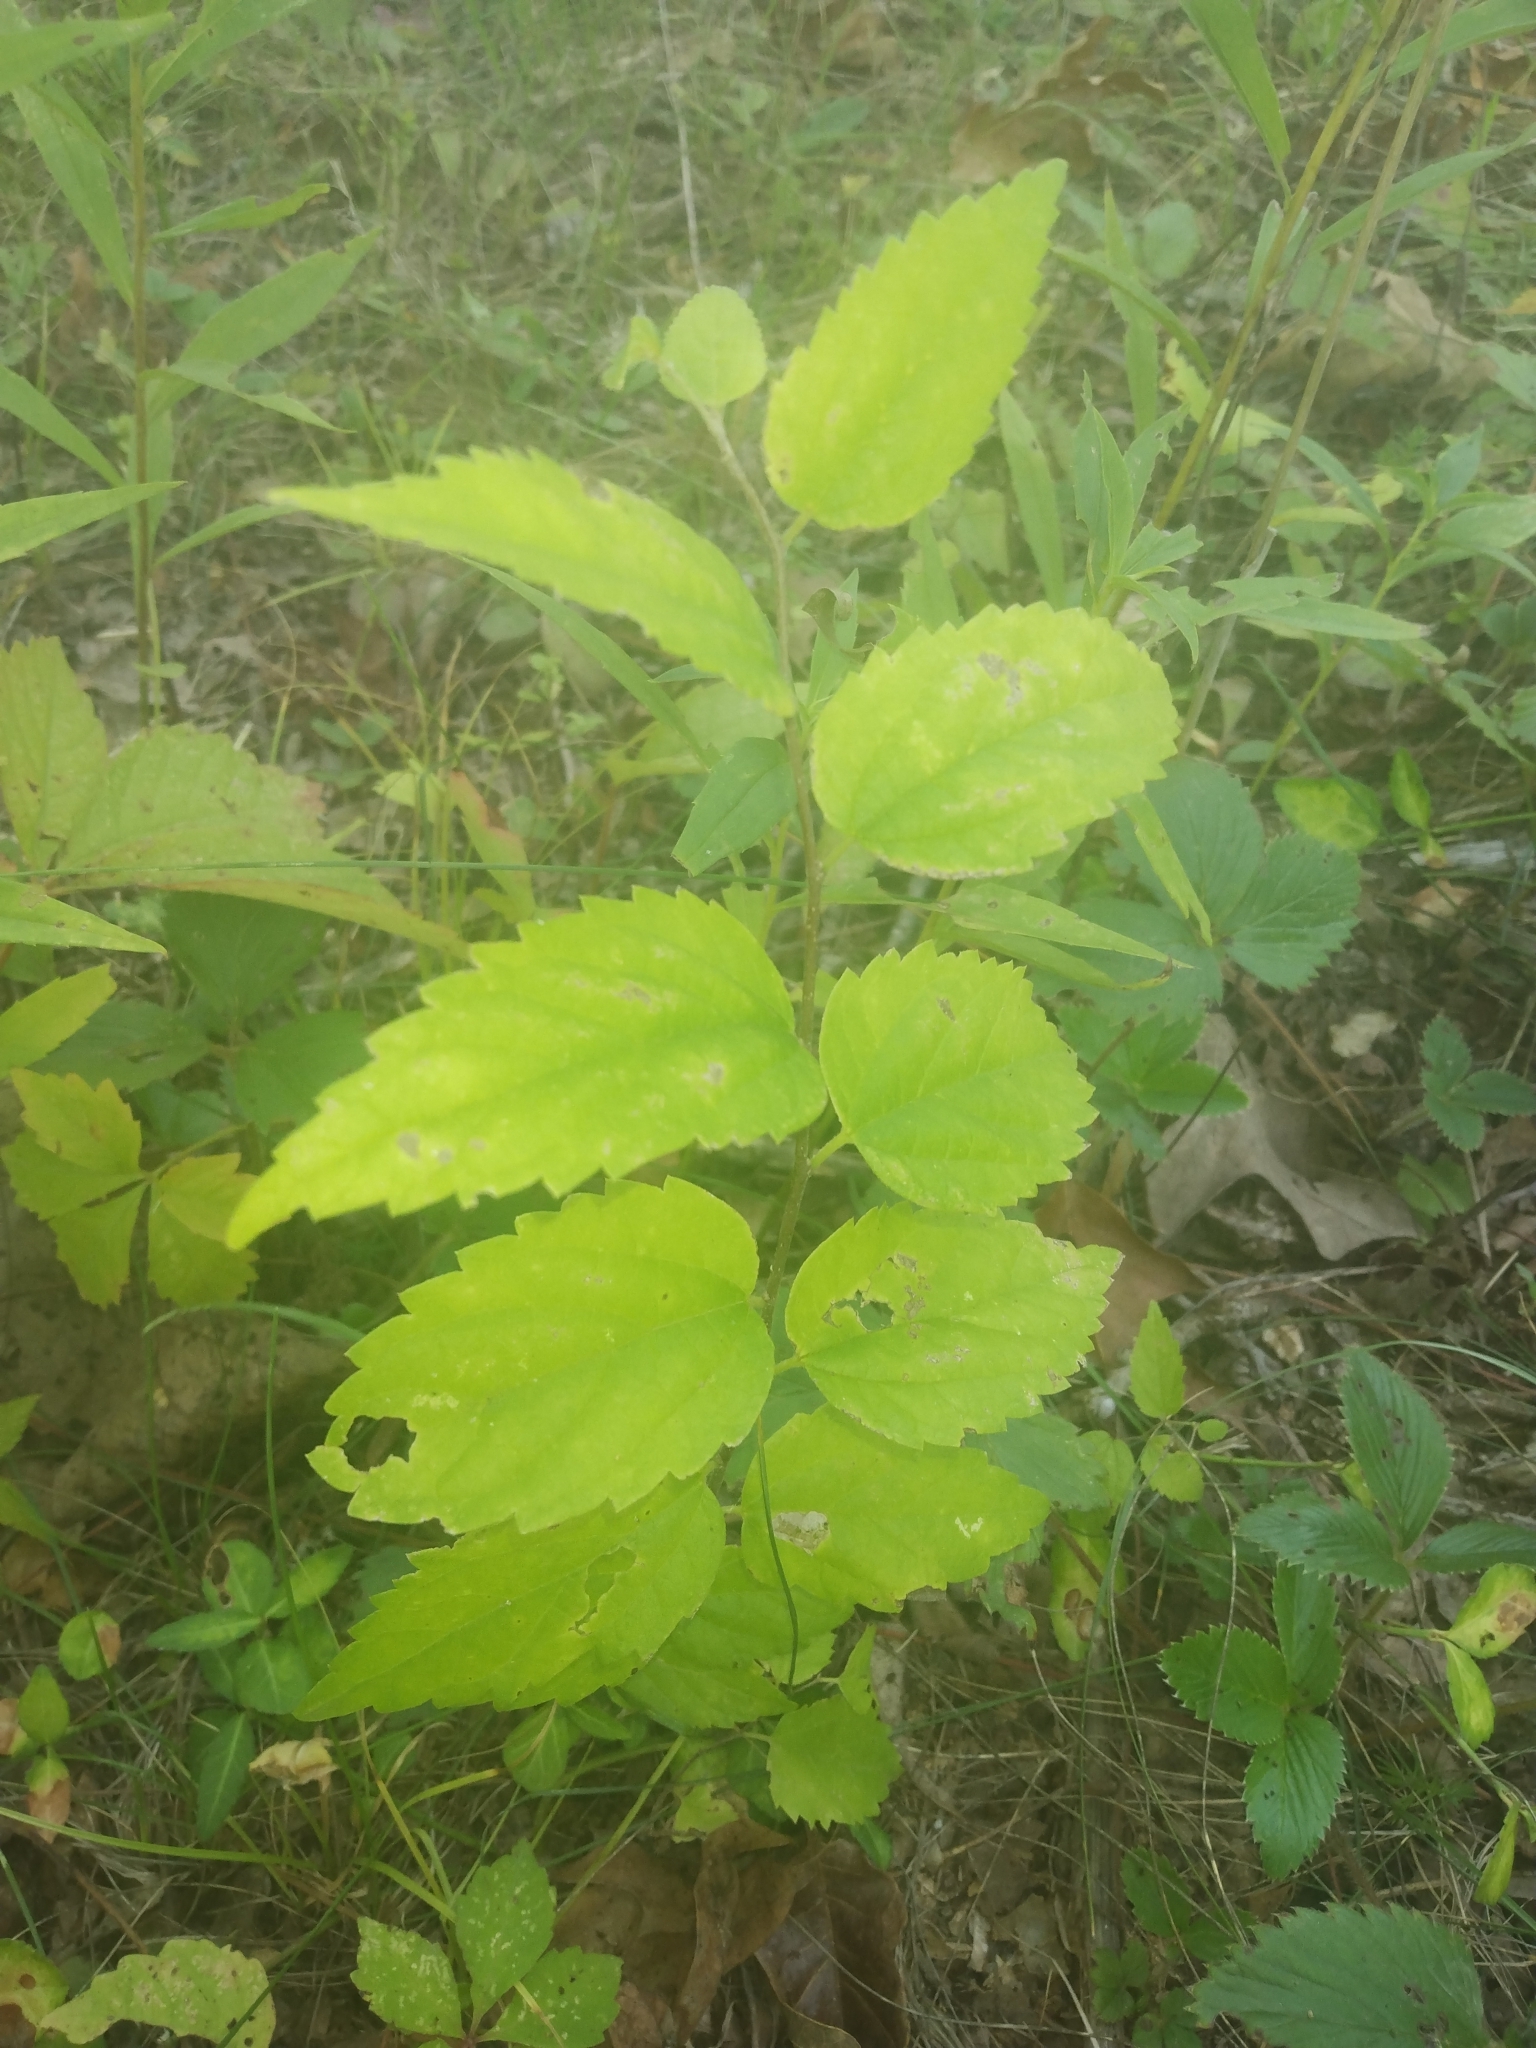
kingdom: Plantae
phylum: Tracheophyta
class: Magnoliopsida
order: Rosales
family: Cannabaceae
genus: Celtis
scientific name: Celtis laevigata
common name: Sugarberry
